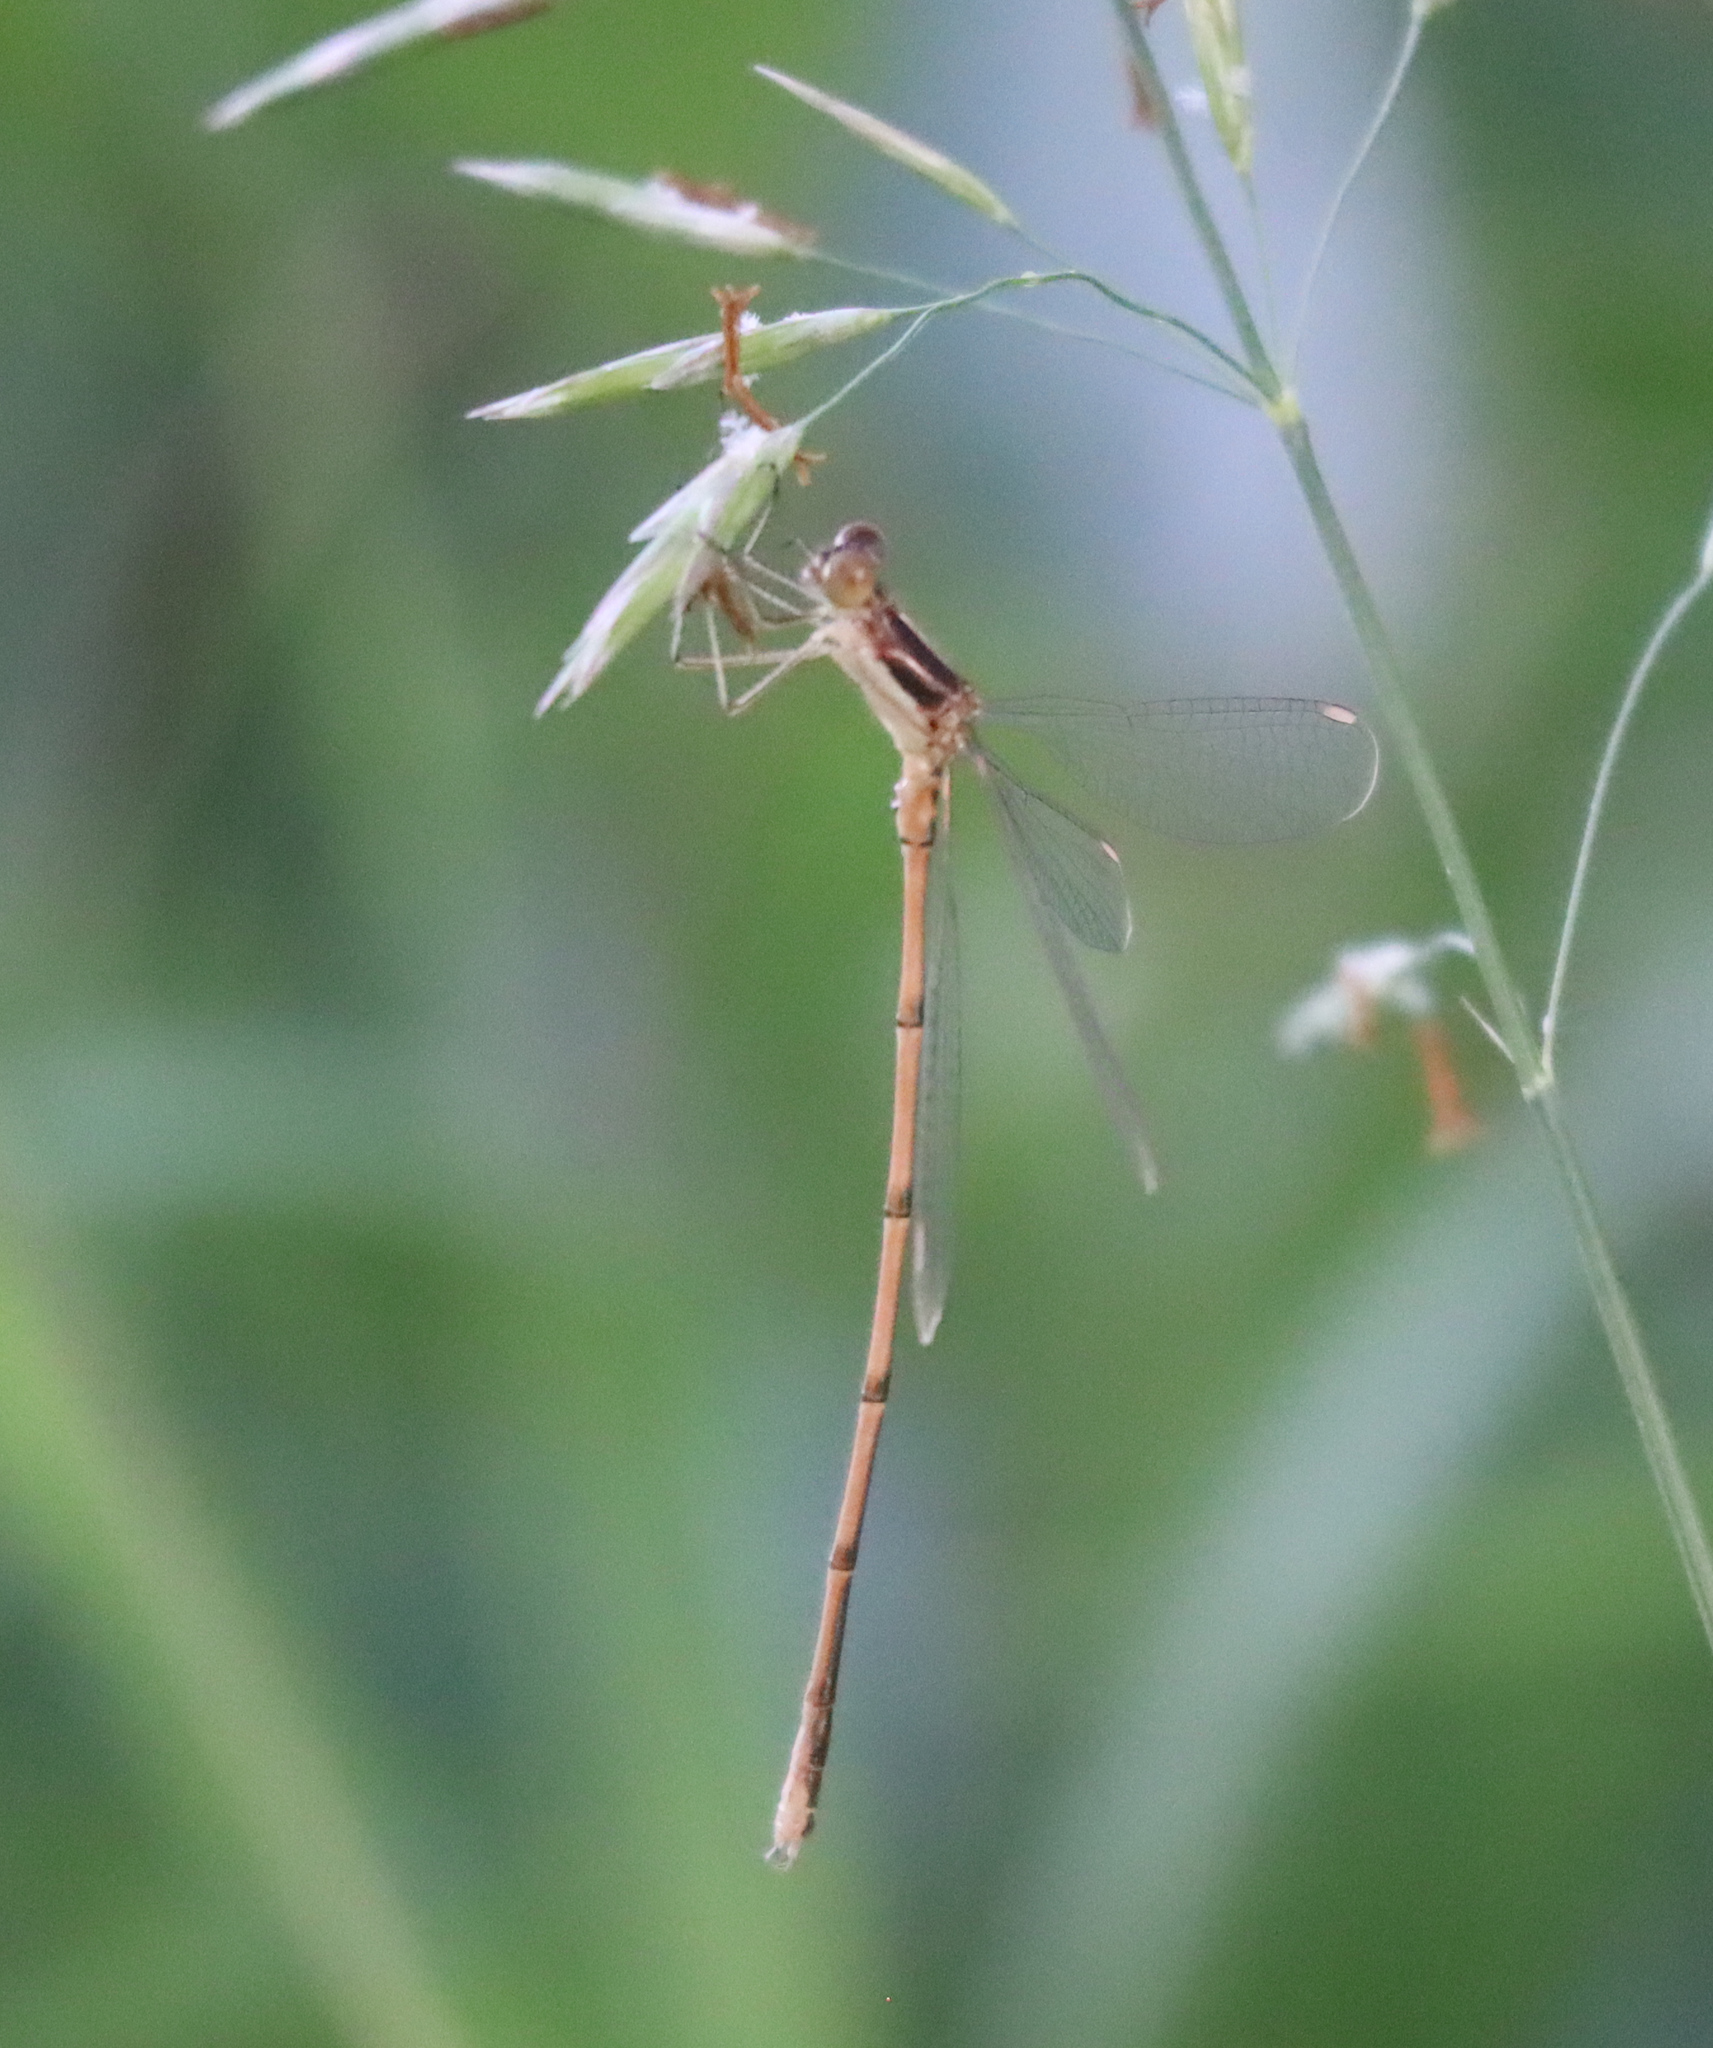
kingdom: Animalia
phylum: Arthropoda
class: Insecta
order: Odonata
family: Lestidae
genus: Lestes
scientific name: Lestes rectangularis
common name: Slender spreadwing
